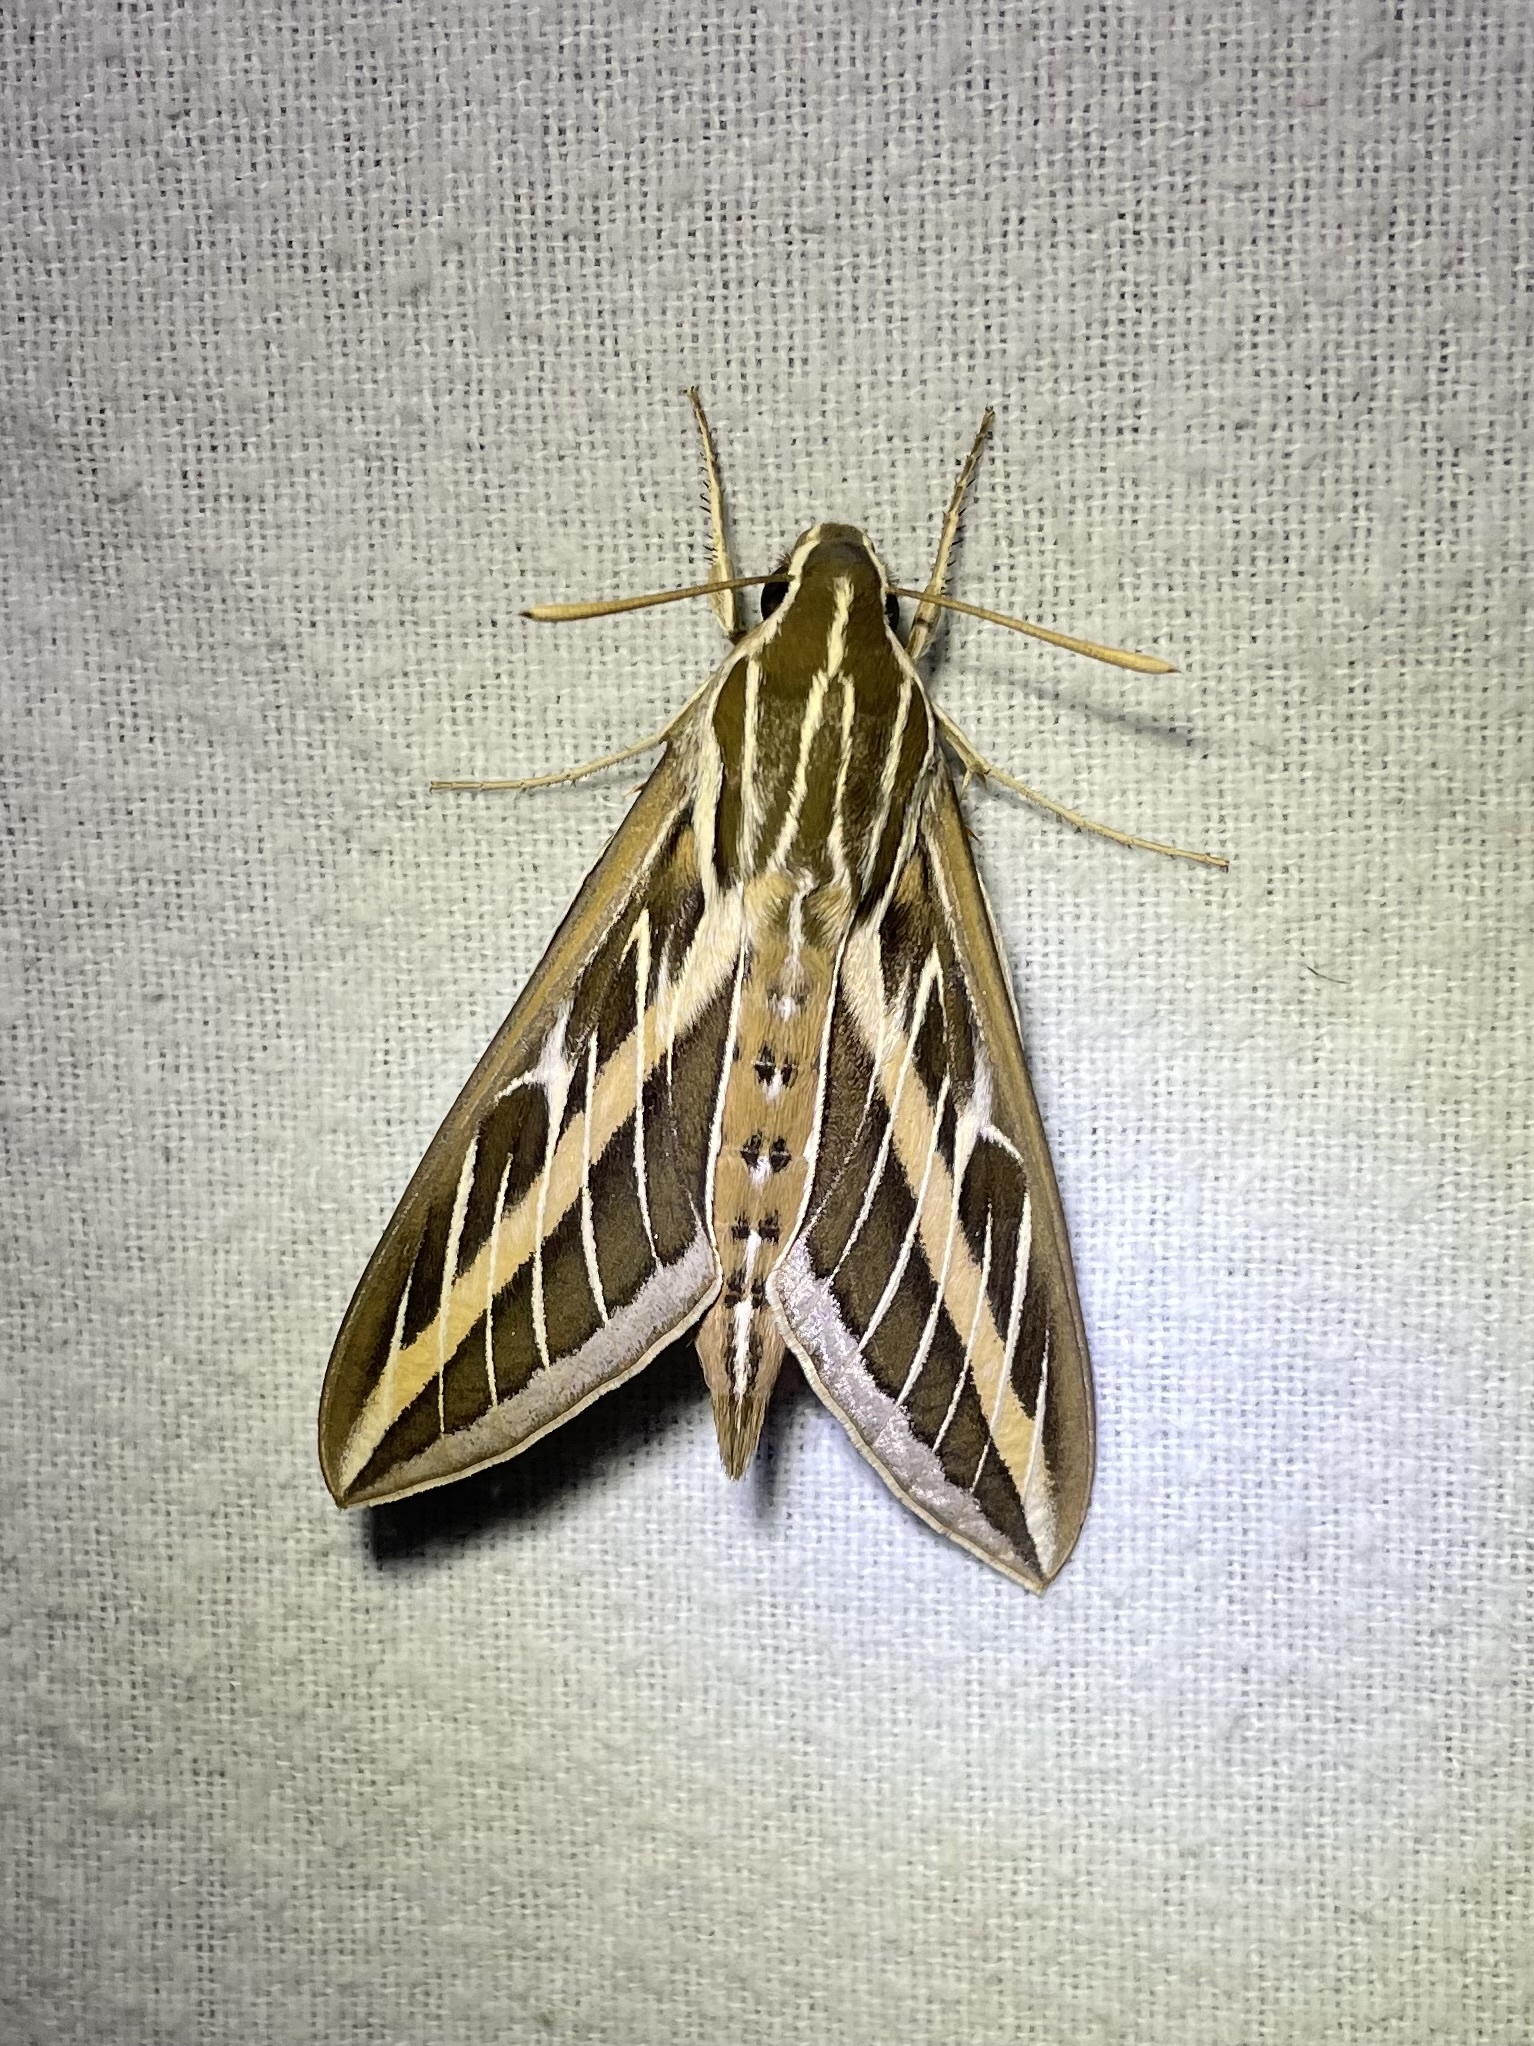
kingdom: Animalia
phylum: Arthropoda
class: Insecta
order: Lepidoptera
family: Sphingidae
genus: Hyles
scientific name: Hyles lineata
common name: White-lined sphinx
